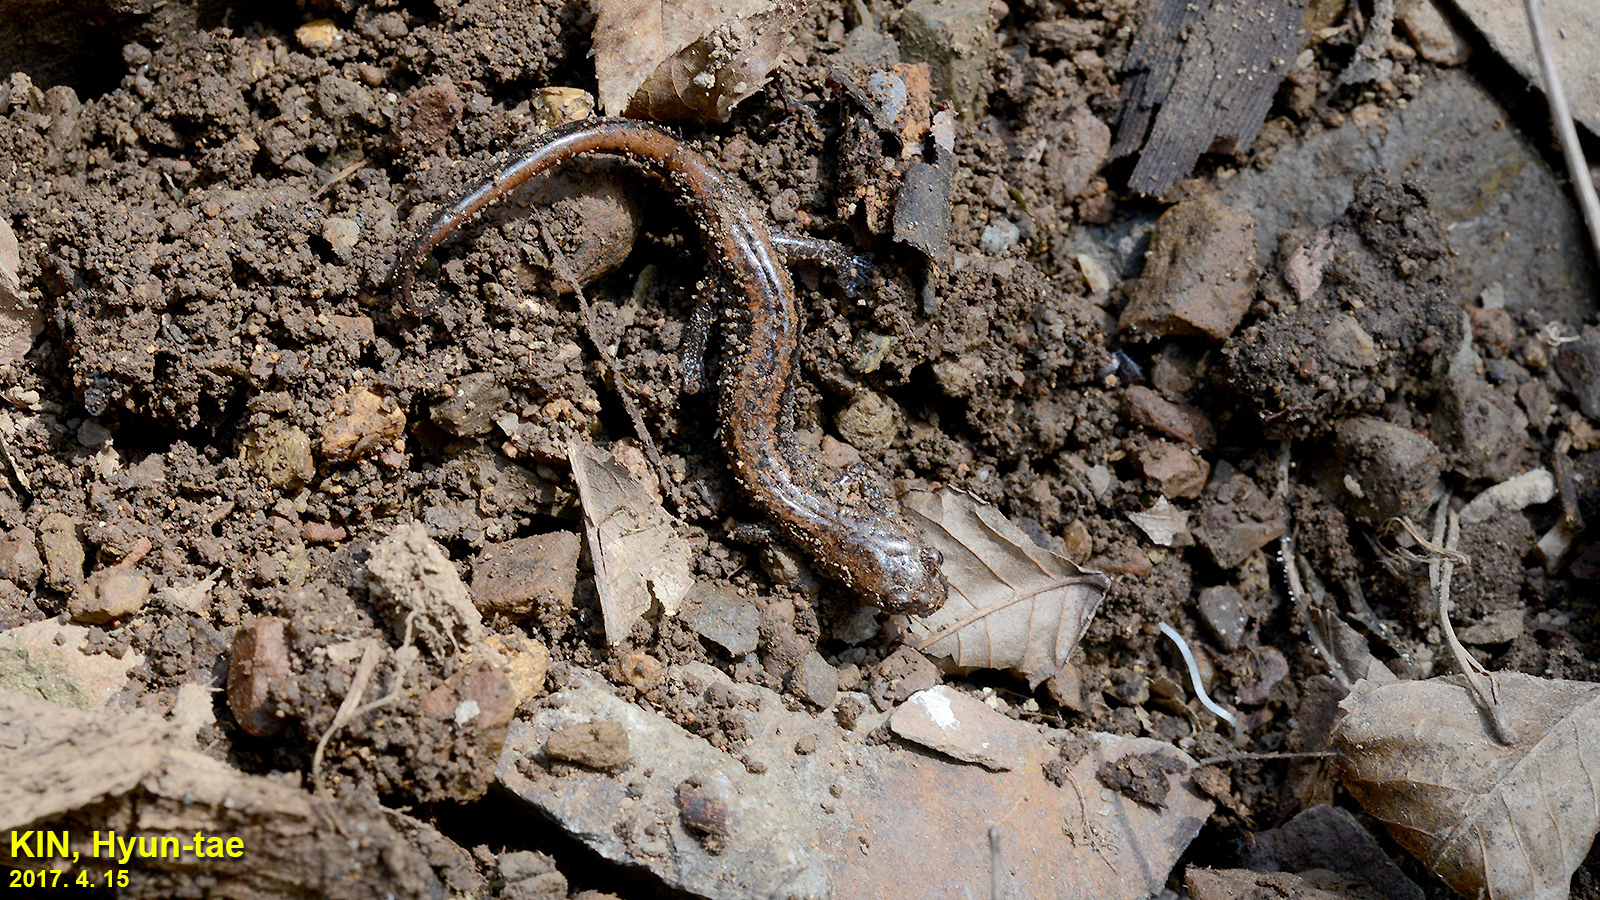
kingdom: Animalia
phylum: Chordata
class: Amphibia
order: Caudata
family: Plethodontidae
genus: Karsenia
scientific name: Karsenia koreana
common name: Korean crevice salamander
